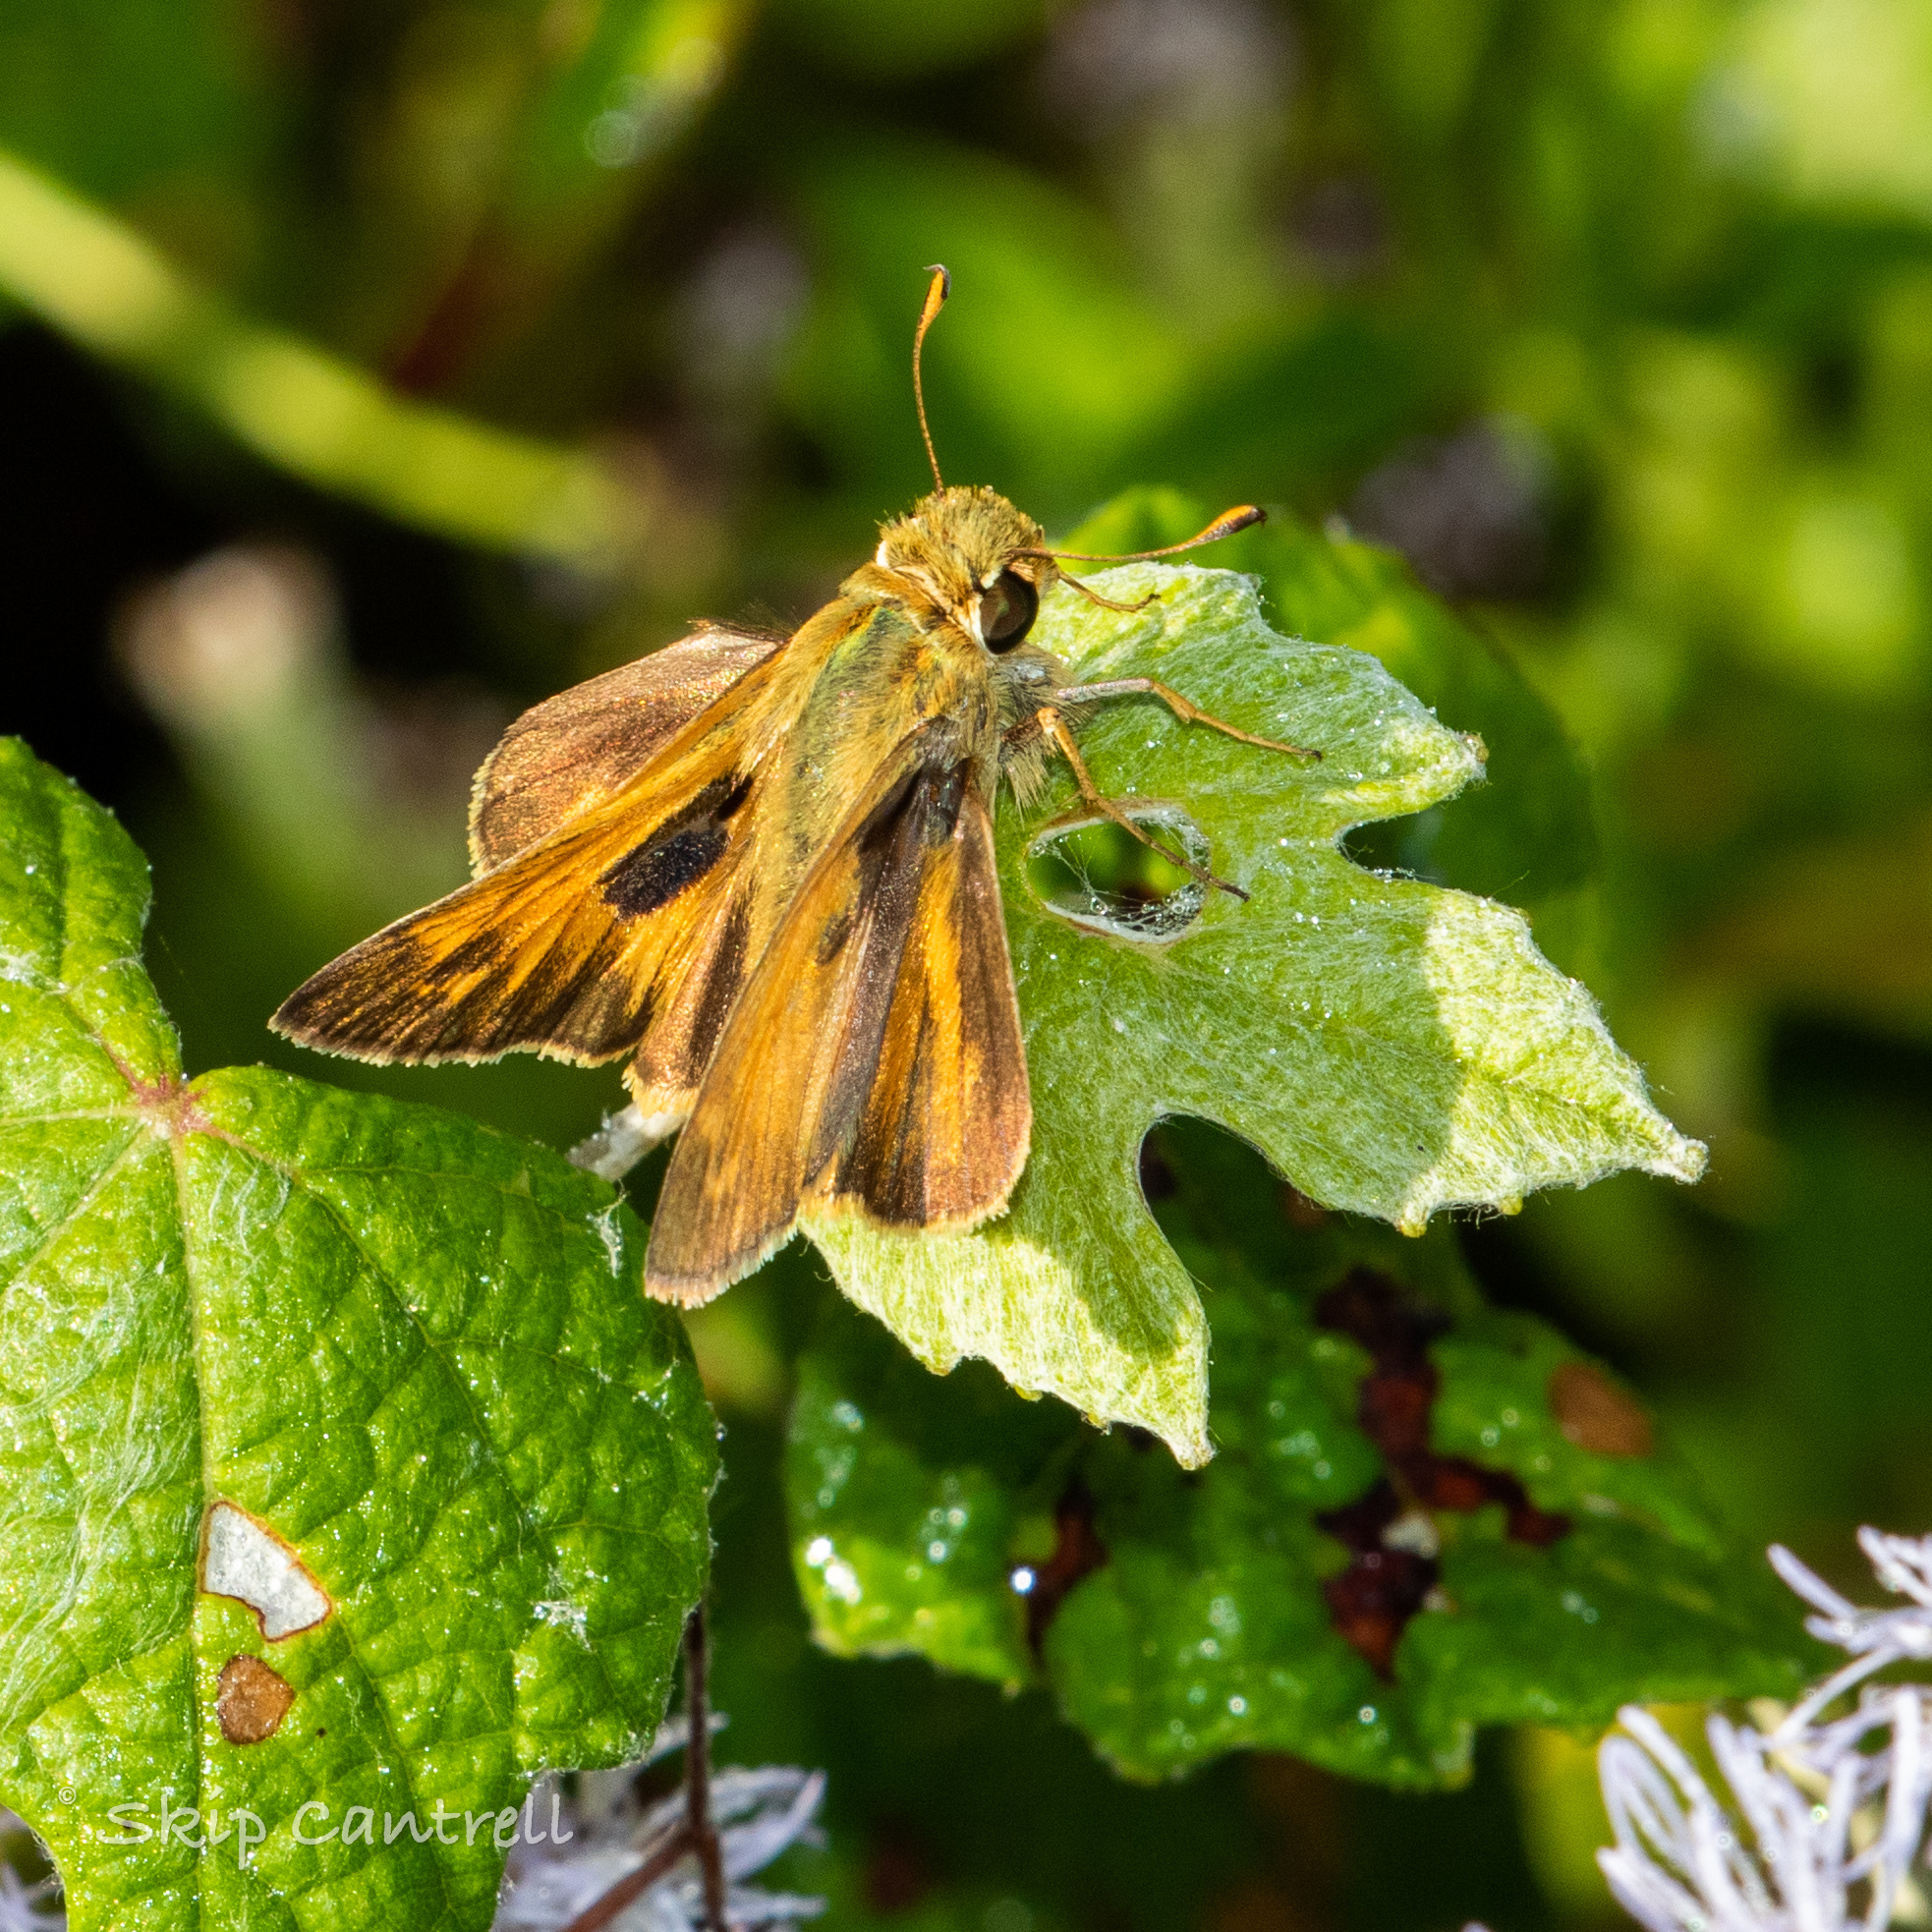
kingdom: Animalia
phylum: Arthropoda
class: Insecta
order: Lepidoptera
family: Hesperiidae
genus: Atalopedes
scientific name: Atalopedes
